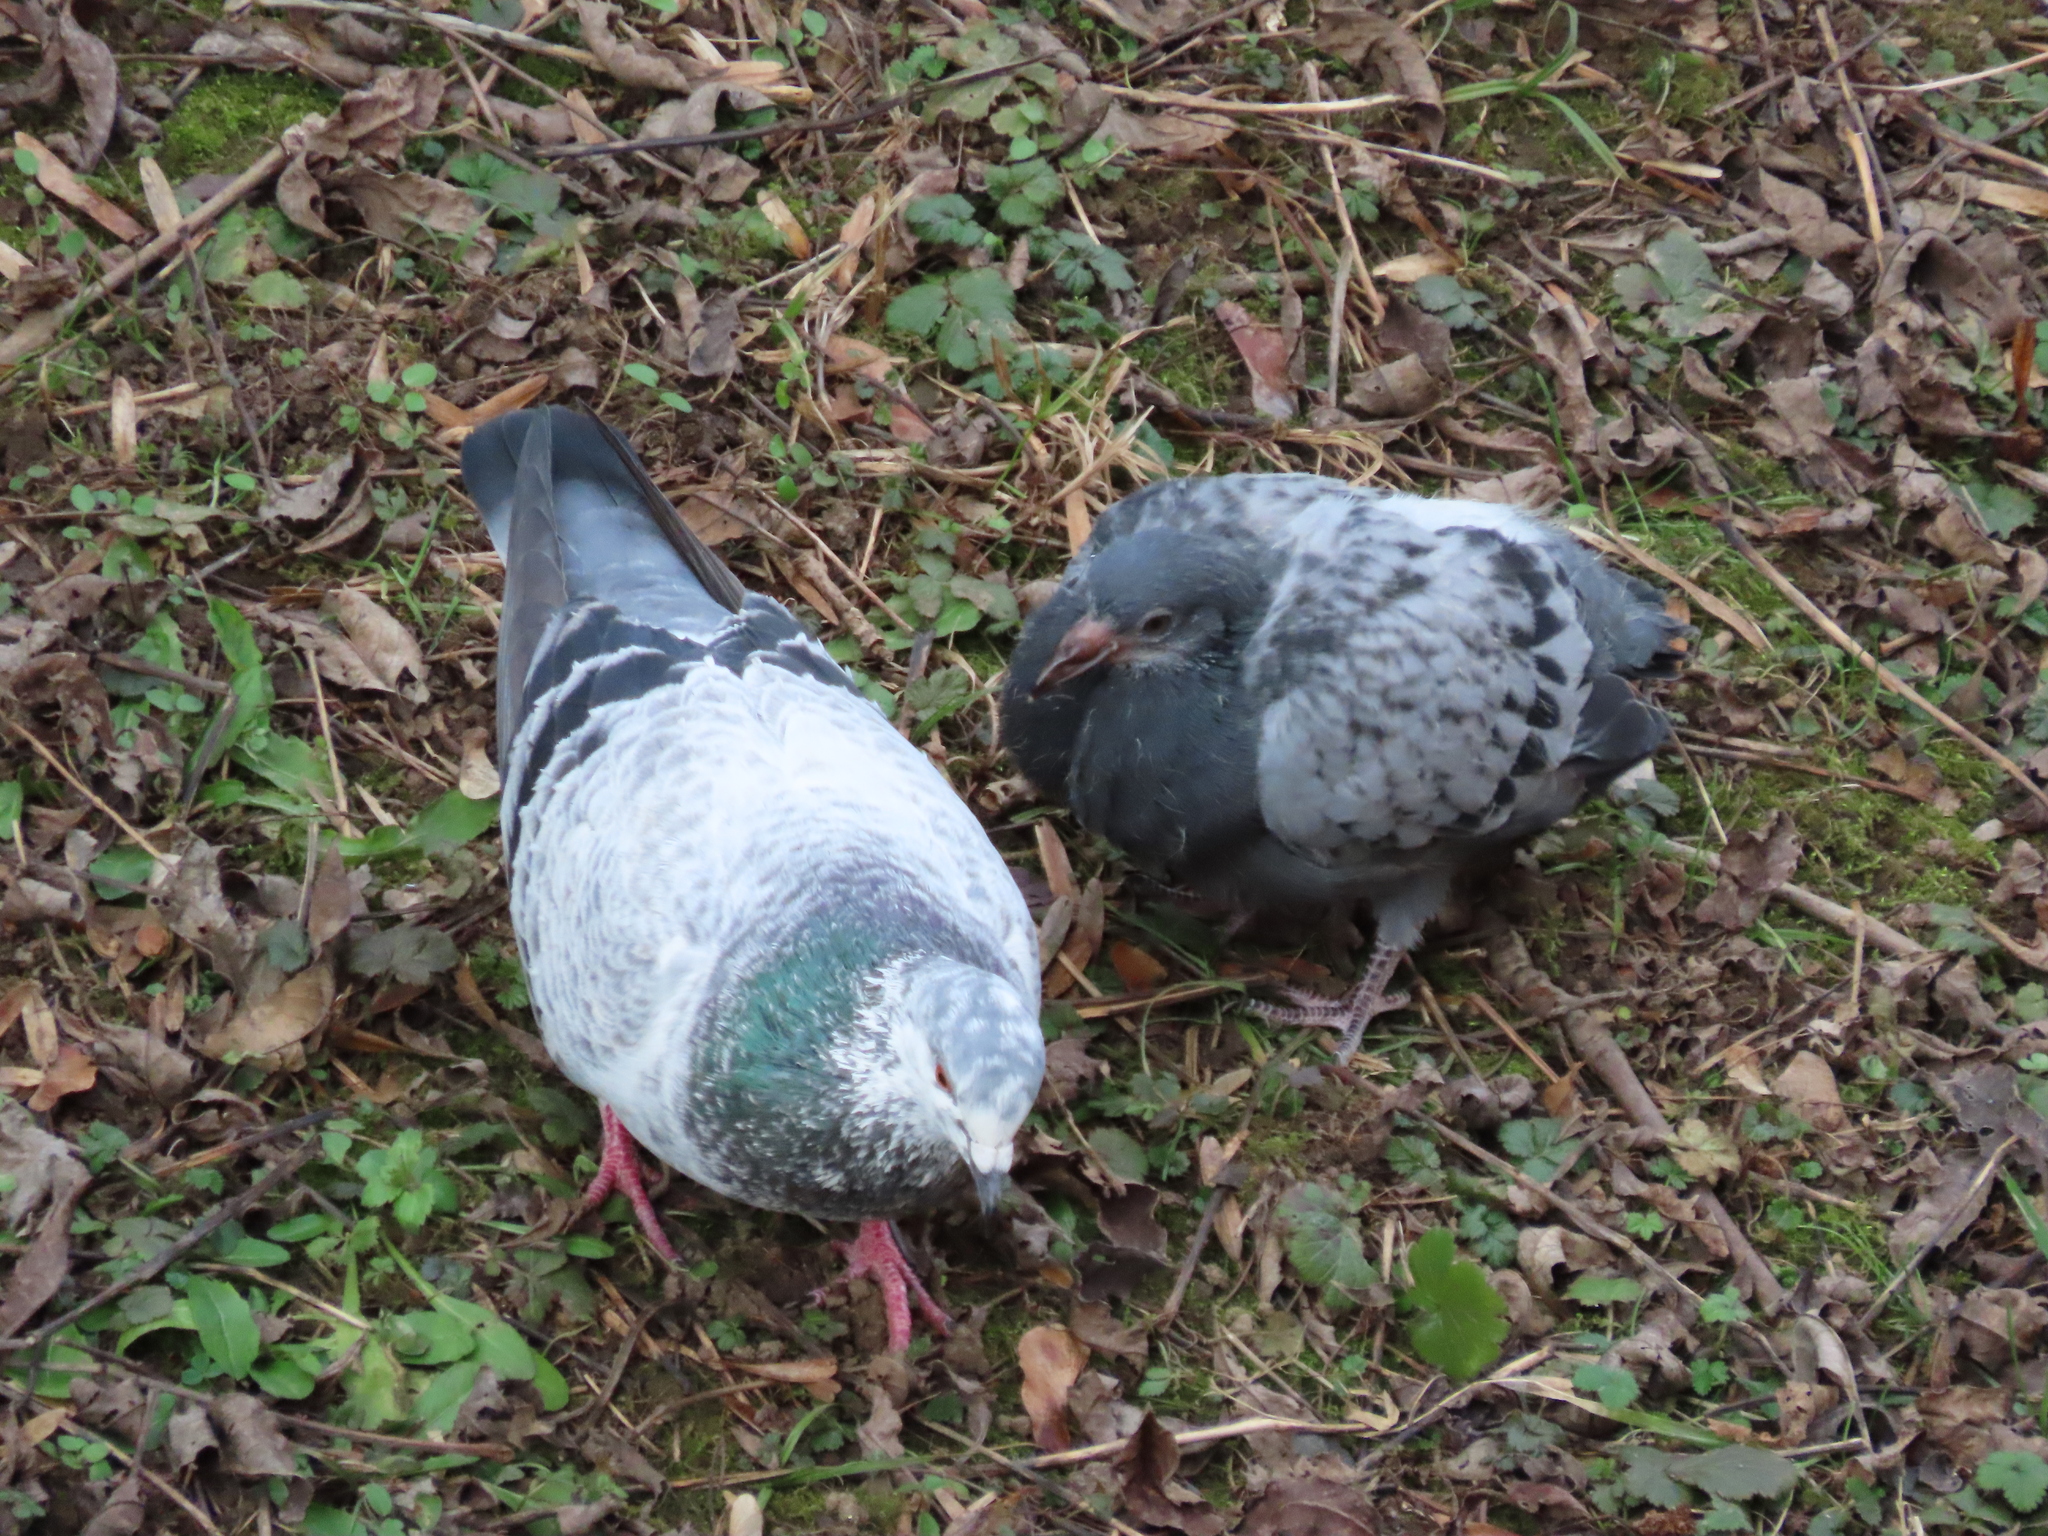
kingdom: Animalia
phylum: Chordata
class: Aves
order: Columbiformes
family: Columbidae
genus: Columba
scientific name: Columba livia
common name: Rock pigeon
